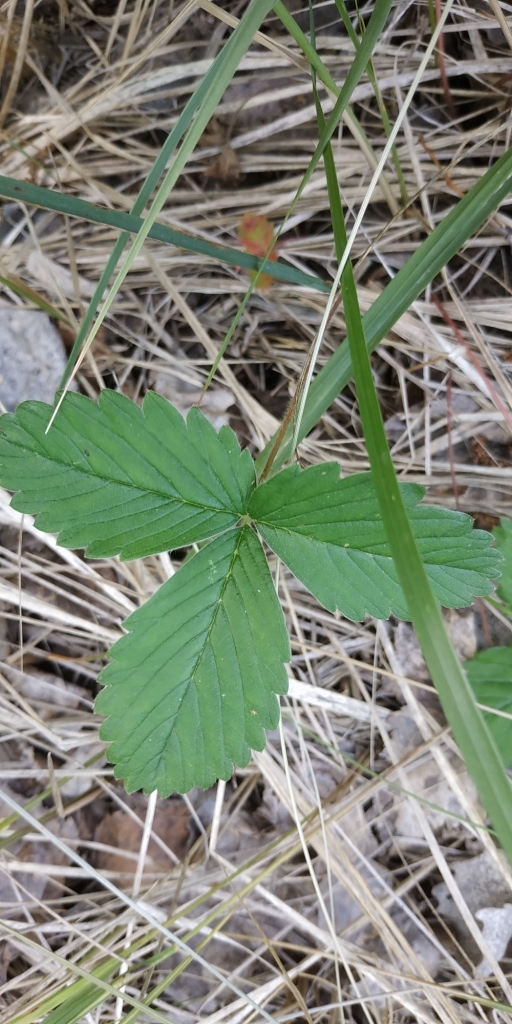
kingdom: Plantae
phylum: Tracheophyta
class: Magnoliopsida
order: Rosales
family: Rosaceae
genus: Fragaria
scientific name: Fragaria viridis
